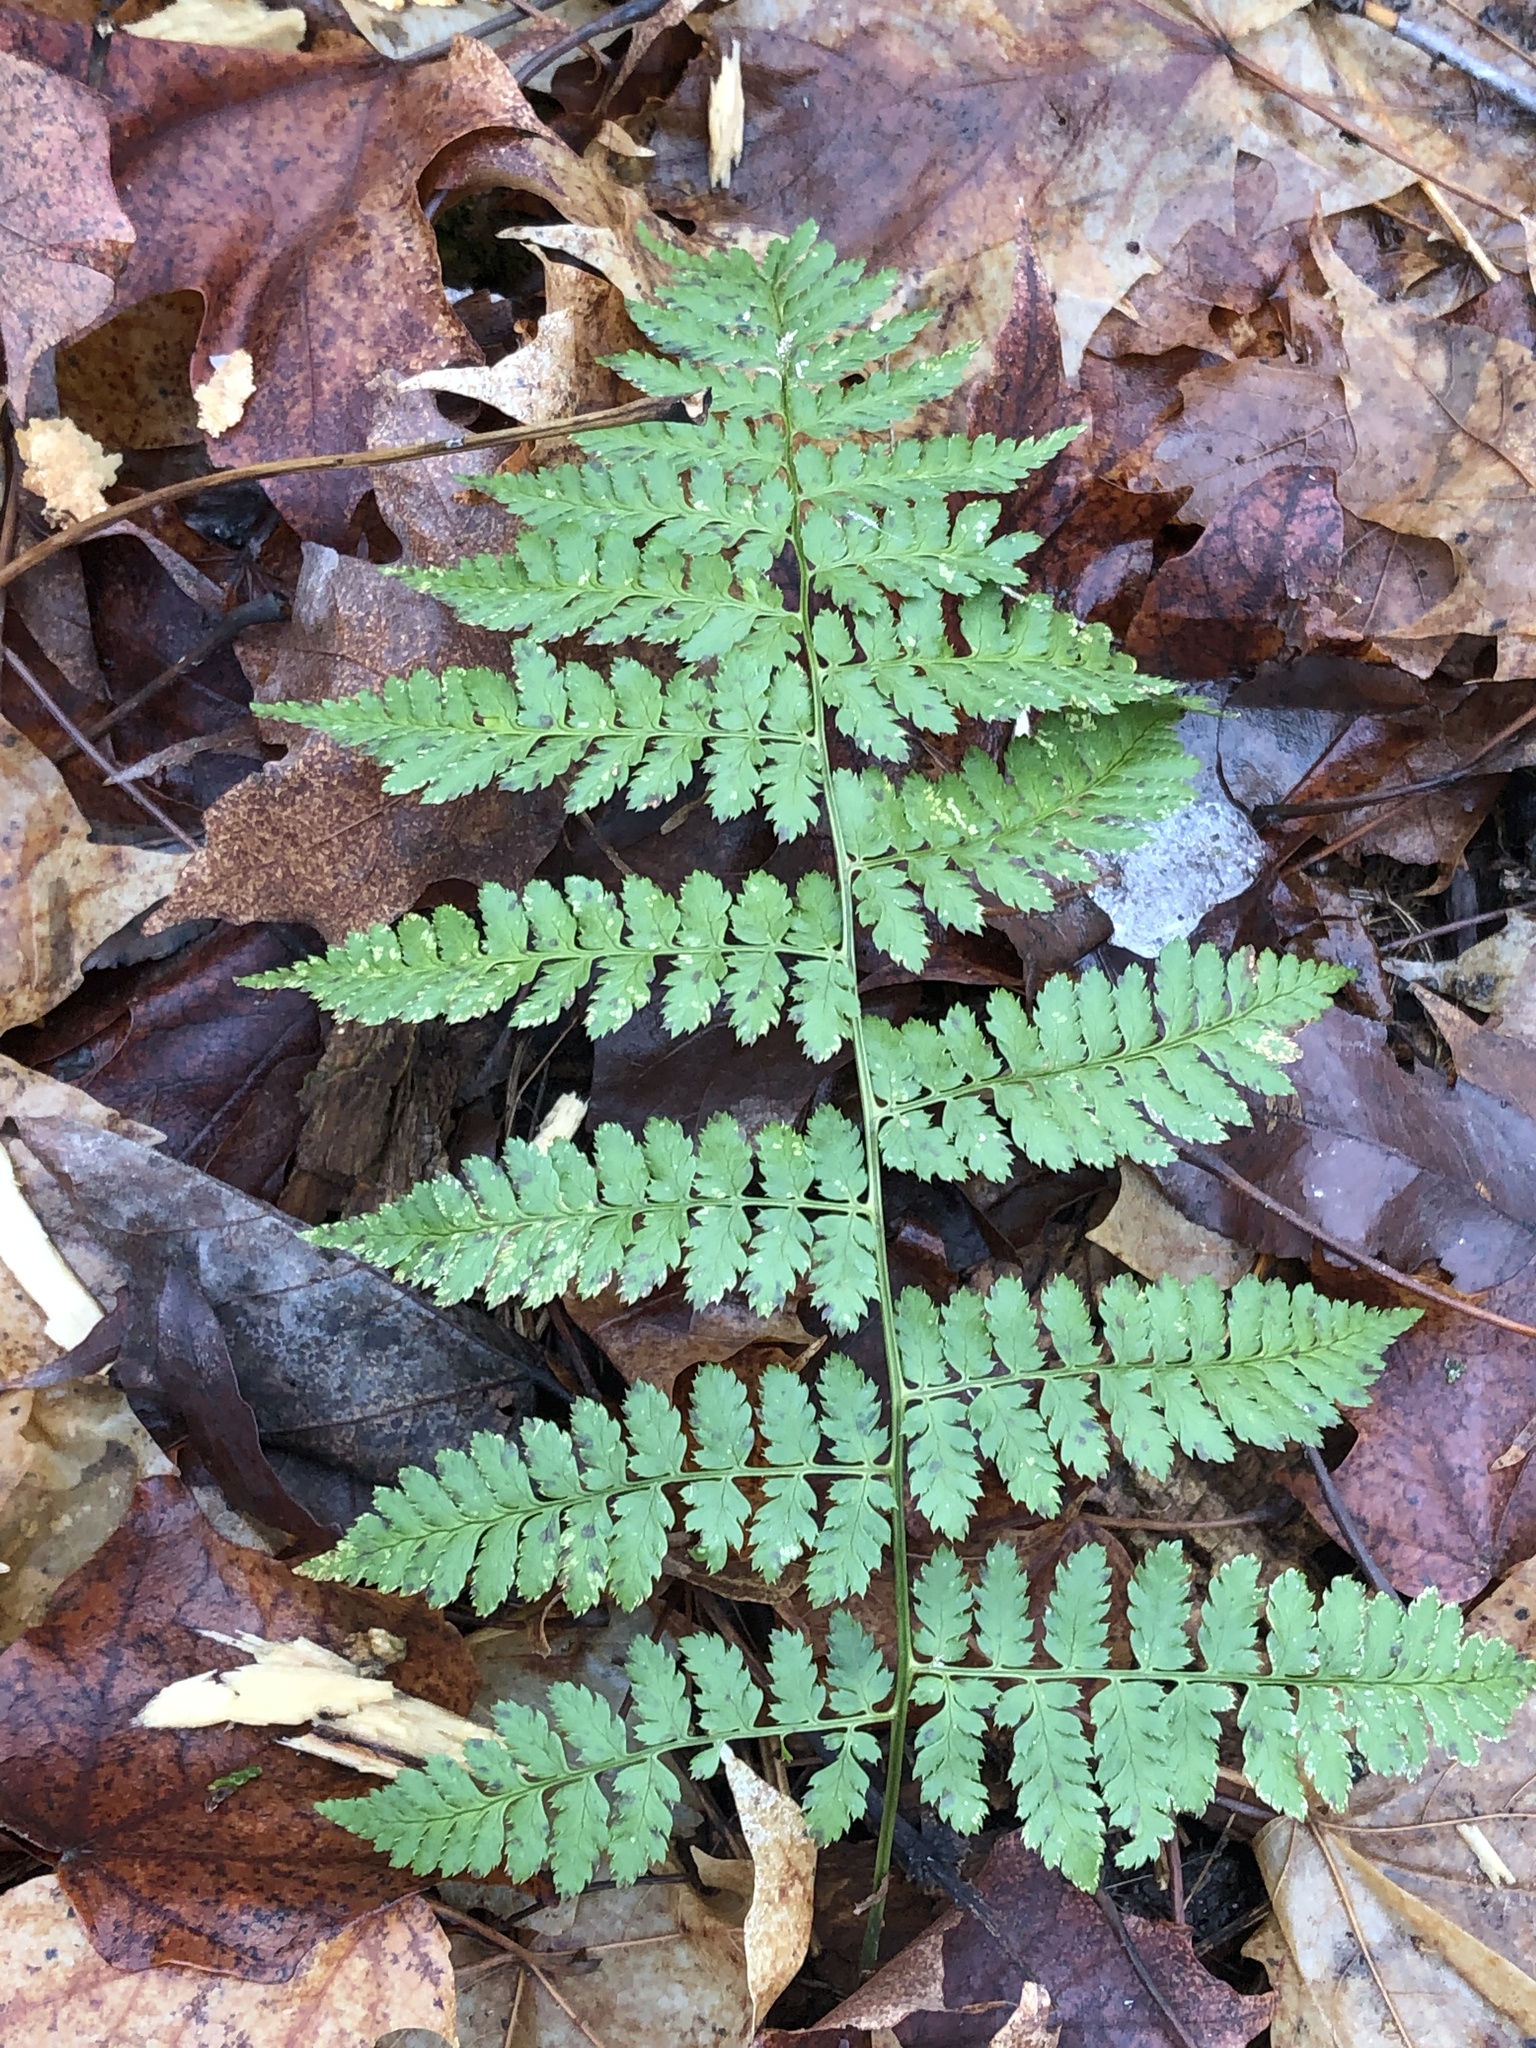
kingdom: Plantae
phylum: Tracheophyta
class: Polypodiopsida
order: Polypodiales
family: Dryopteridaceae
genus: Dryopteris
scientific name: Dryopteris intermedia
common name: Evergreen wood fern
